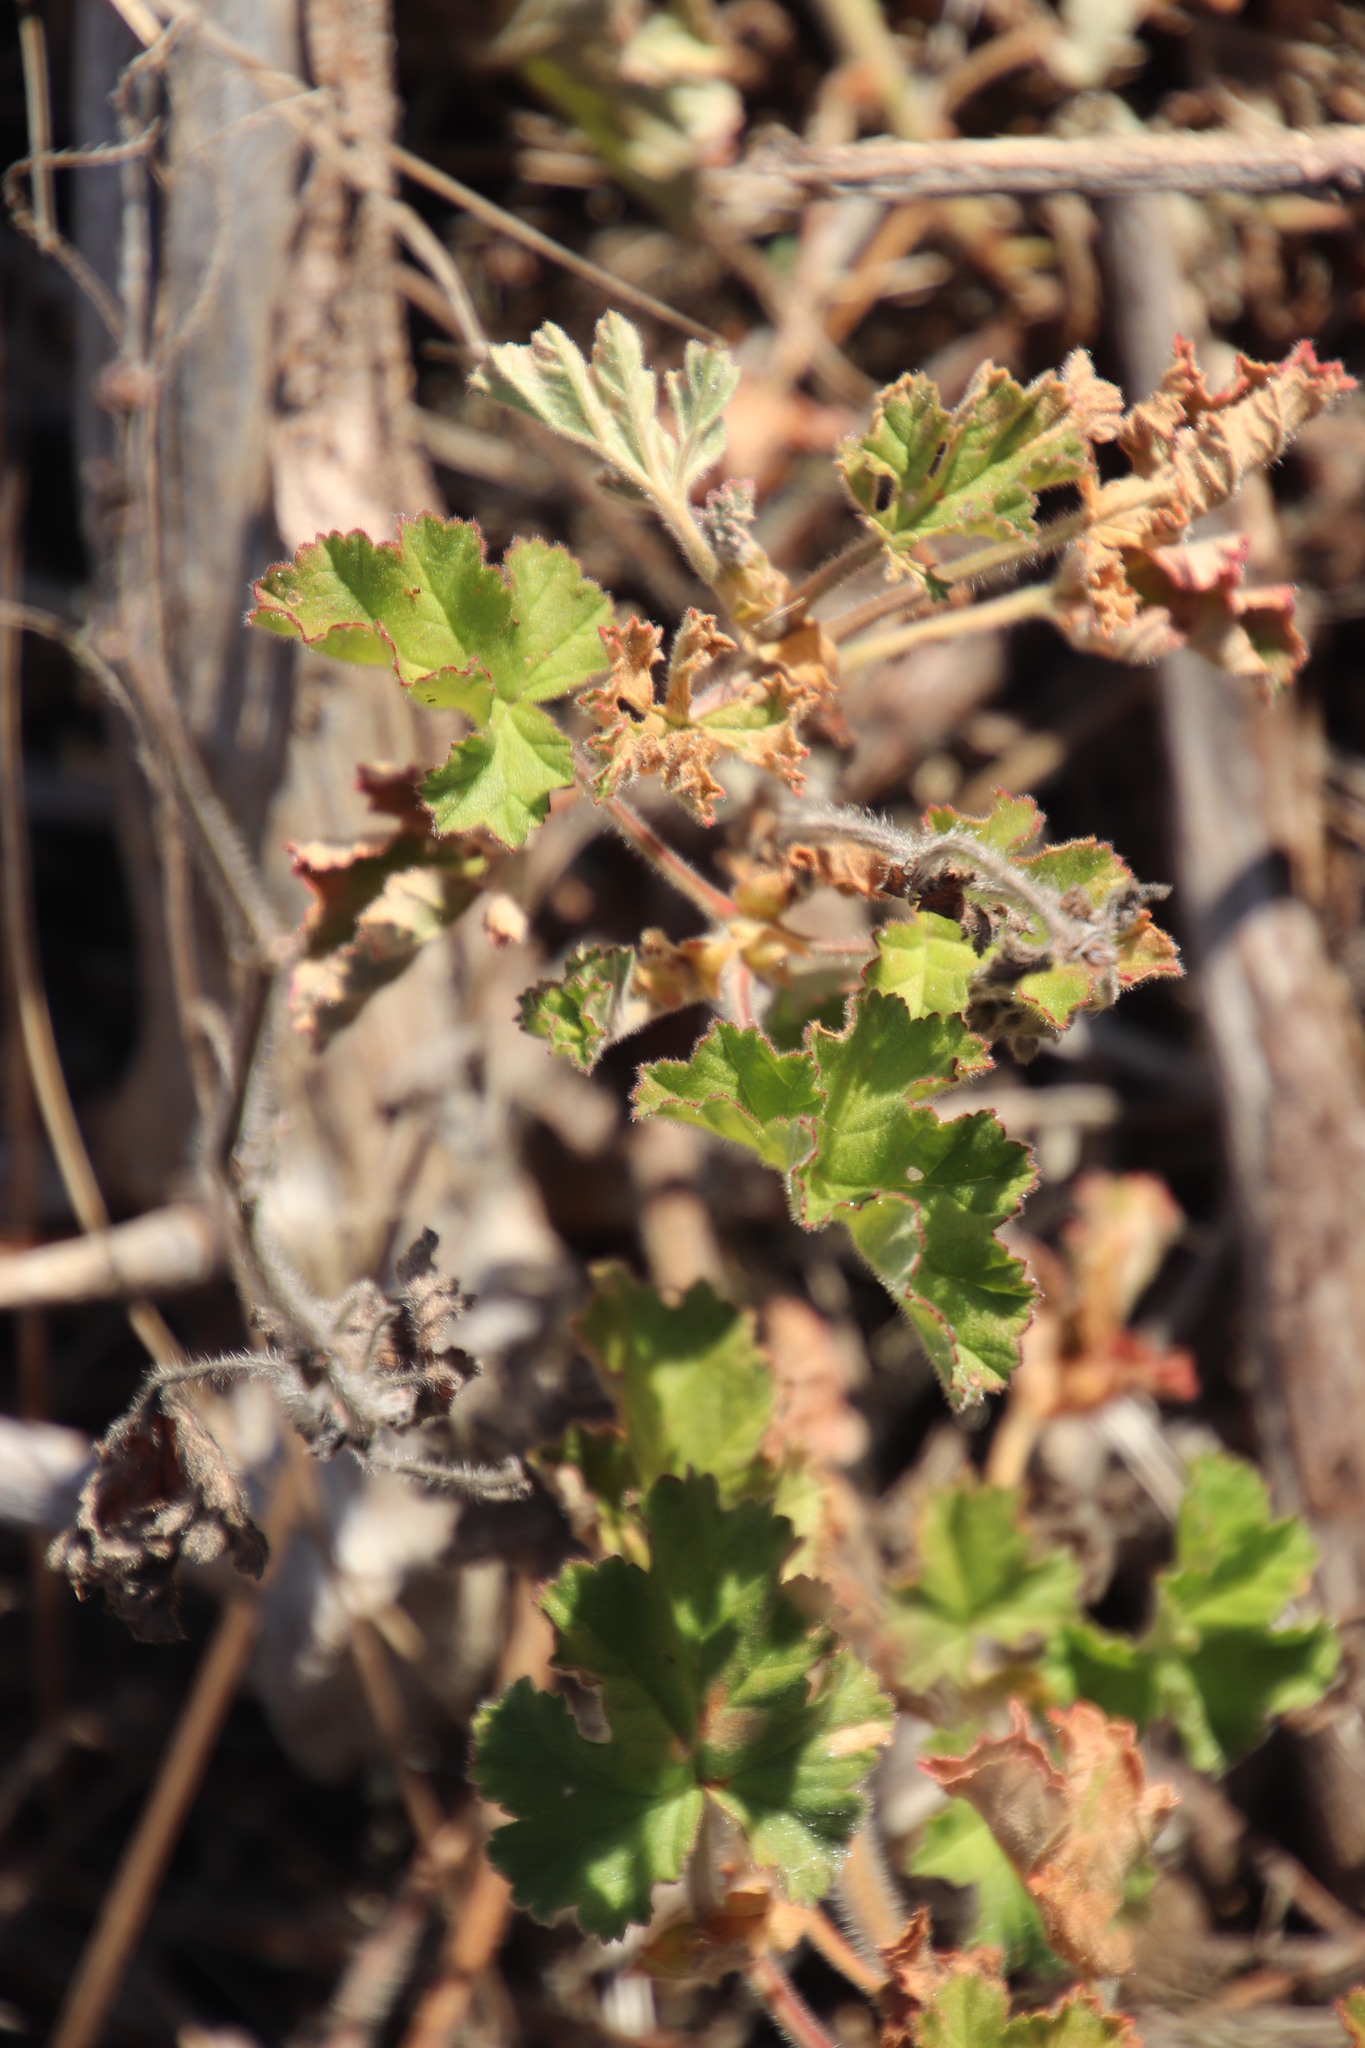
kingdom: Plantae
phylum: Tracheophyta
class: Magnoliopsida
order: Geraniales
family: Geraniaceae
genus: Pelargonium
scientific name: Pelargonium capitatum
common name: Rose scented geranium
